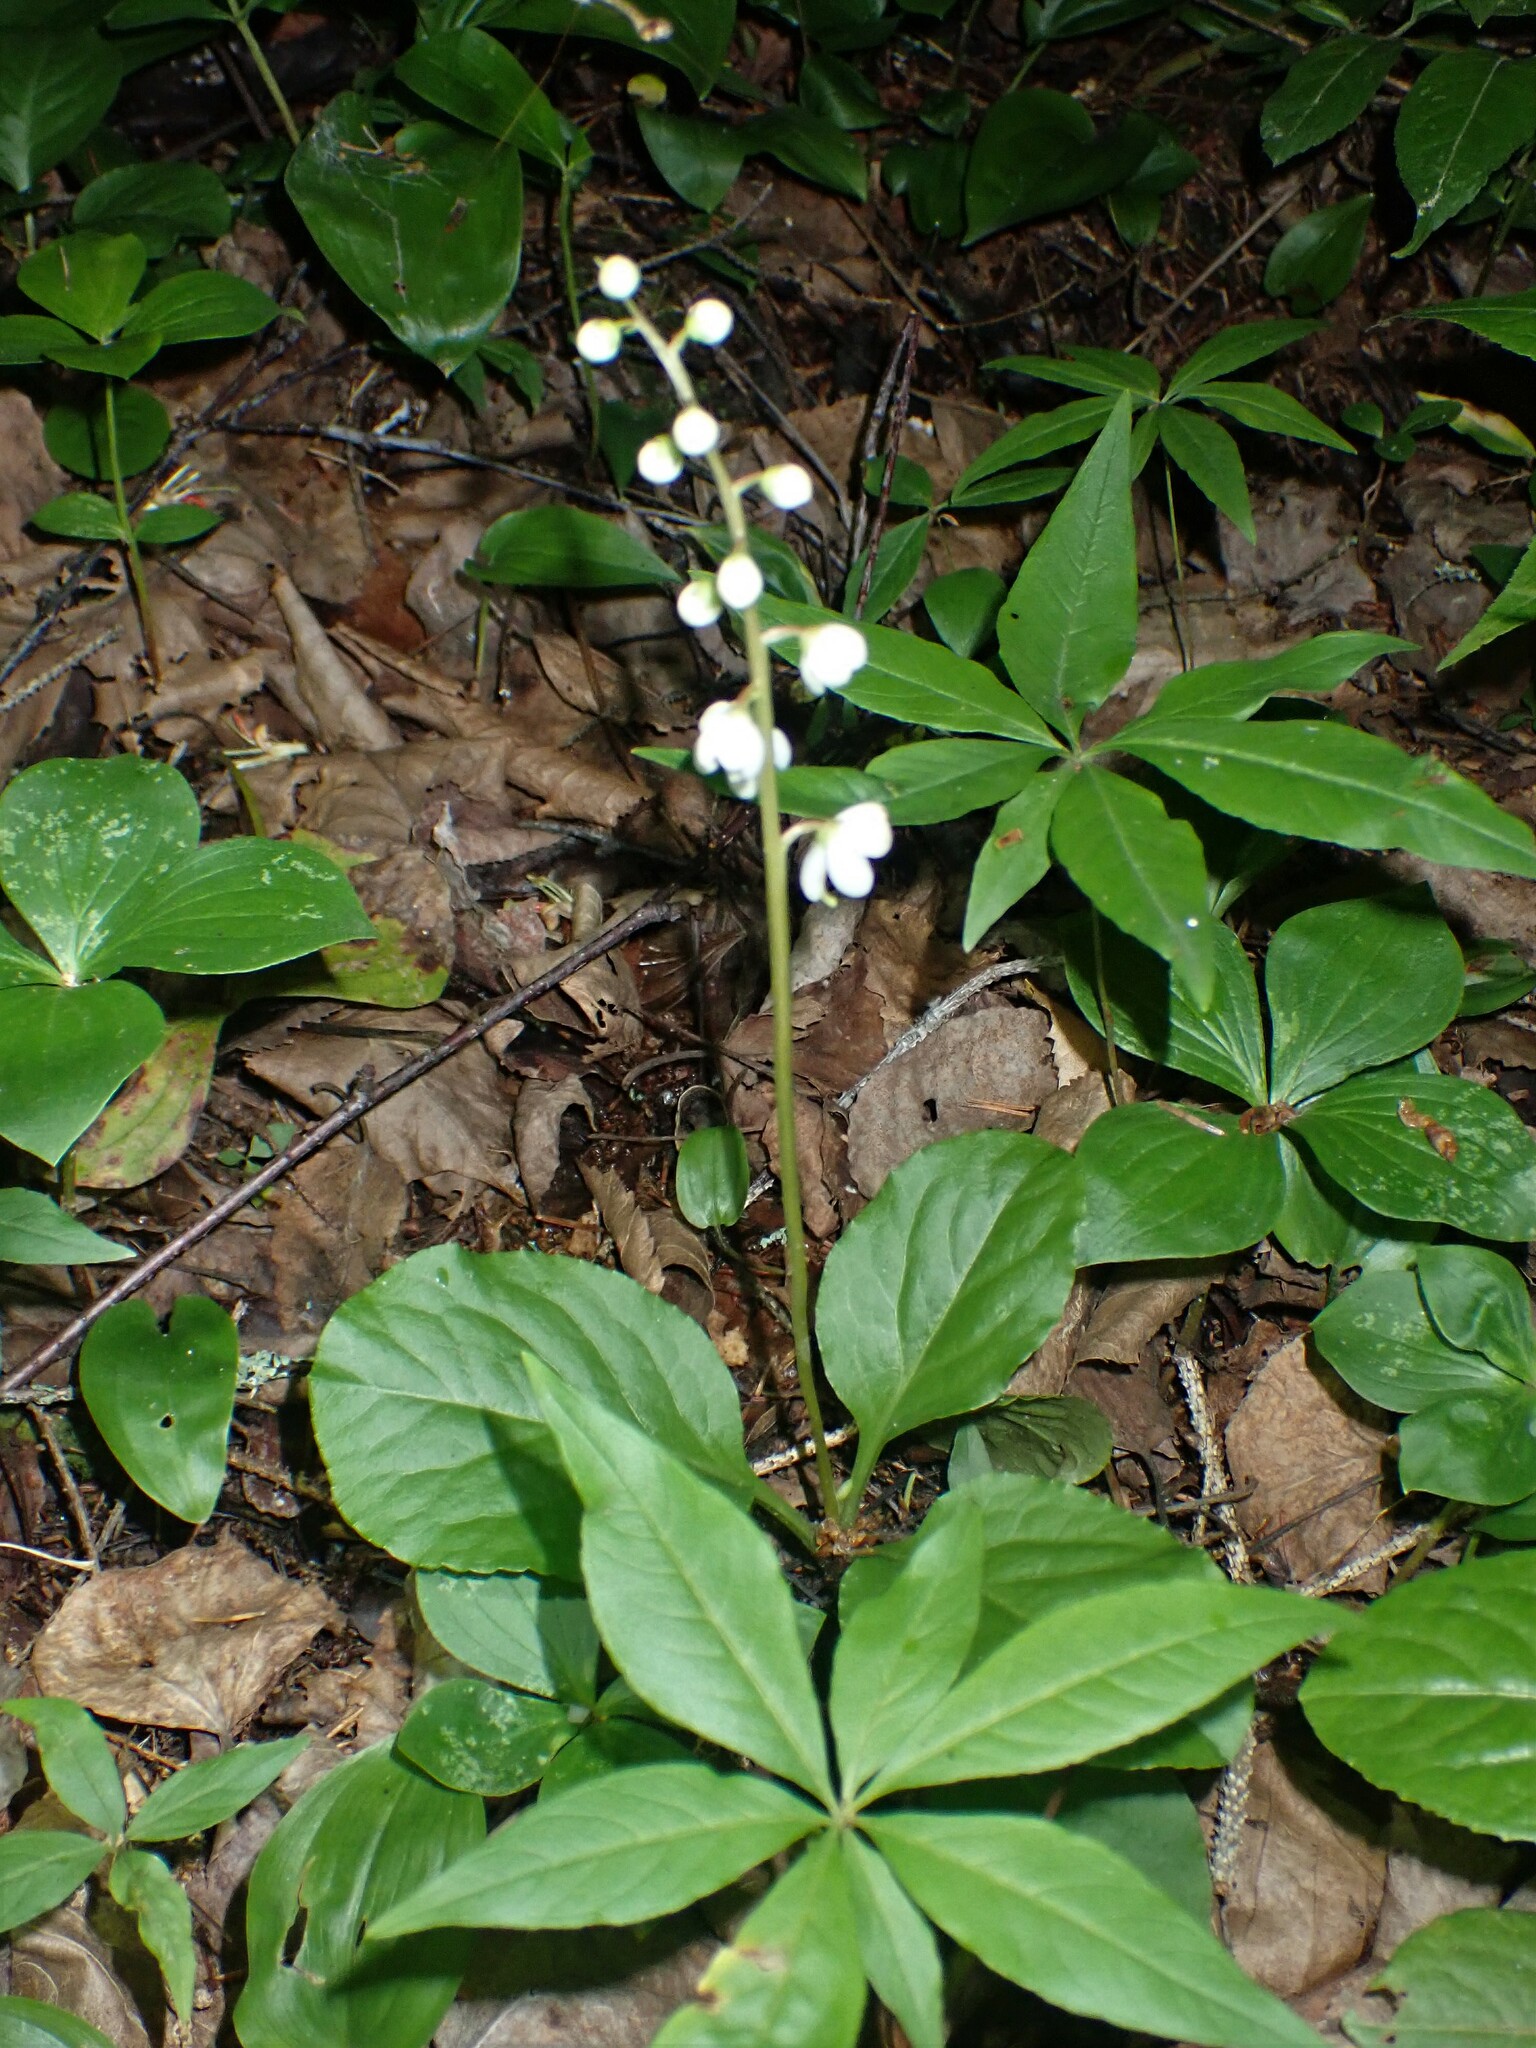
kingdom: Plantae
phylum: Tracheophyta
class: Magnoliopsida
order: Ericales
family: Ericaceae
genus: Pyrola
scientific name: Pyrola elliptica
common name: Shinleaf
